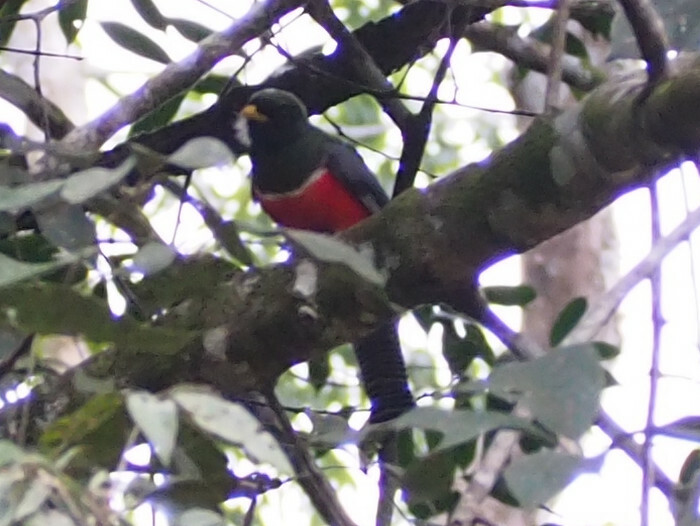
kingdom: Animalia
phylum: Chordata
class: Aves
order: Trogoniformes
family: Trogonidae
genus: Trogon
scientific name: Trogon collaris
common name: Collared trogon
